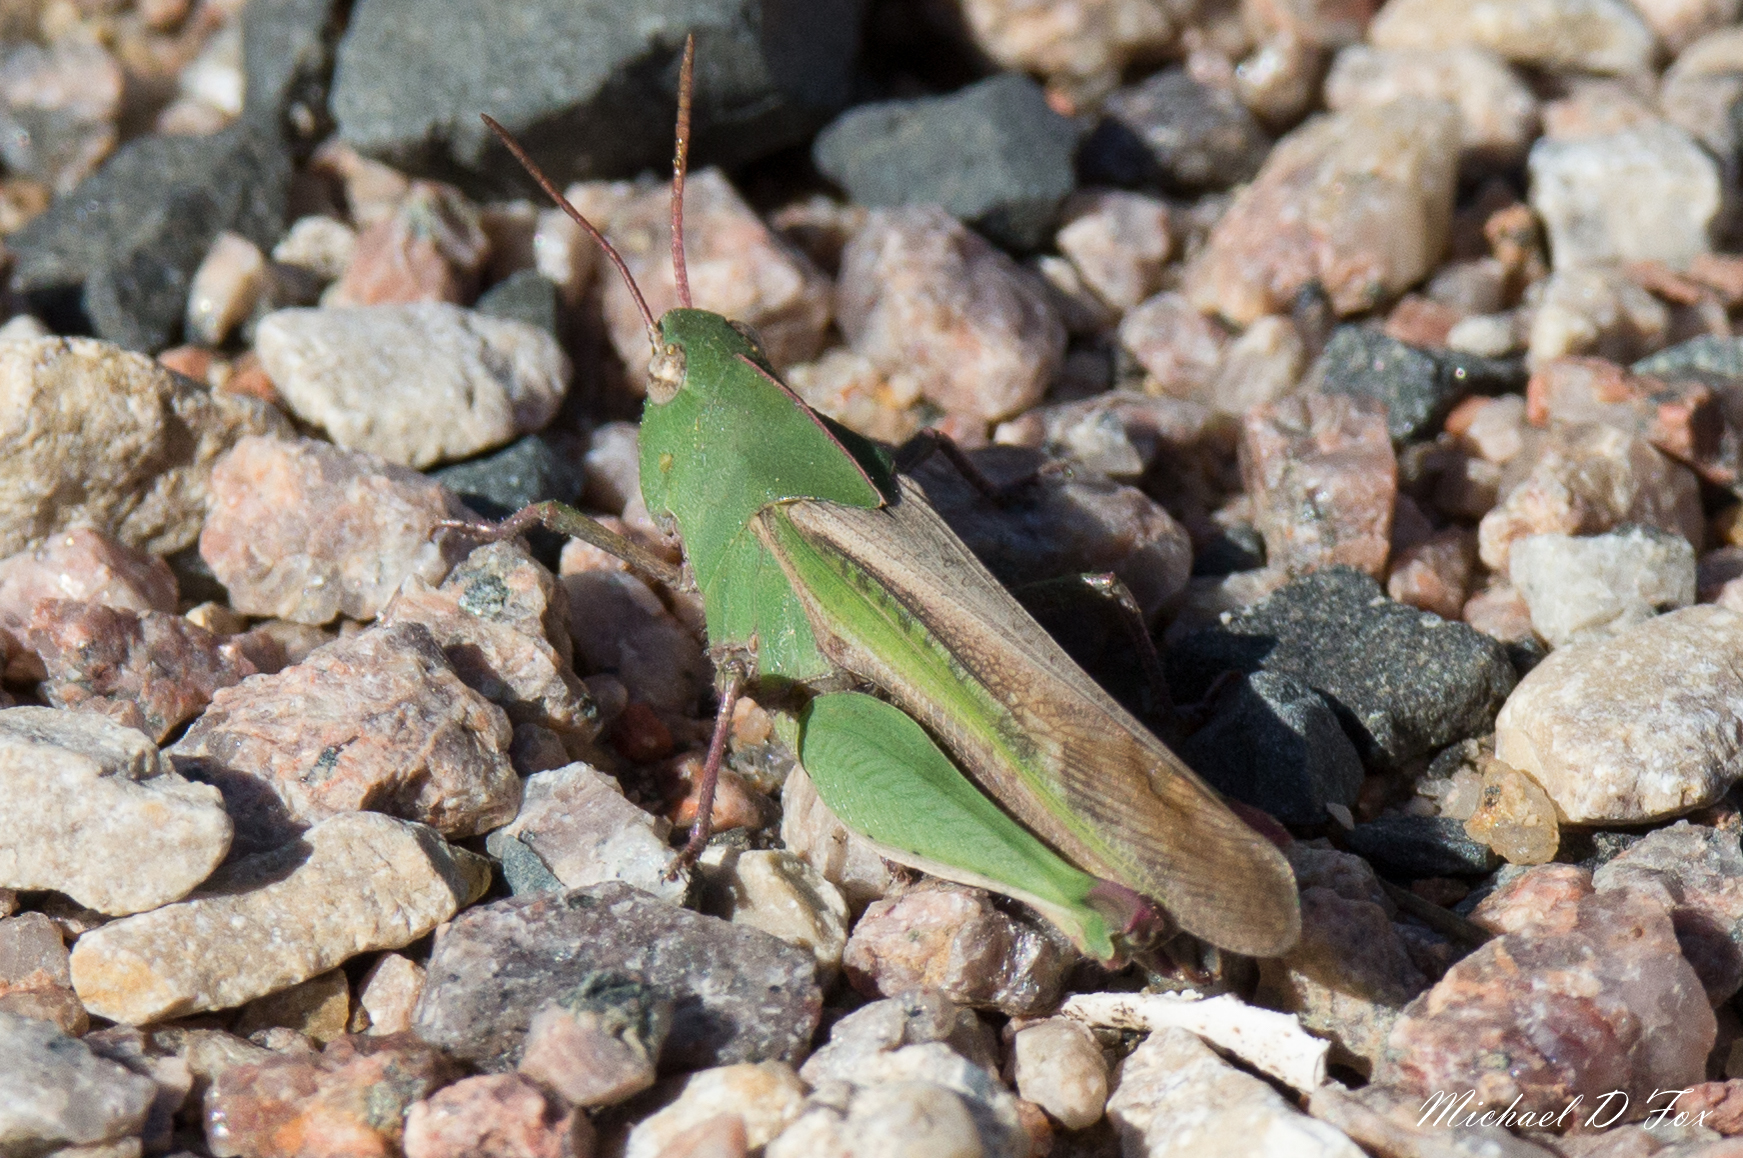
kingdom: Animalia
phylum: Arthropoda
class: Insecta
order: Orthoptera
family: Acrididae
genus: Chortophaga
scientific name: Chortophaga viridifasciata
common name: Green-striped grasshopper
